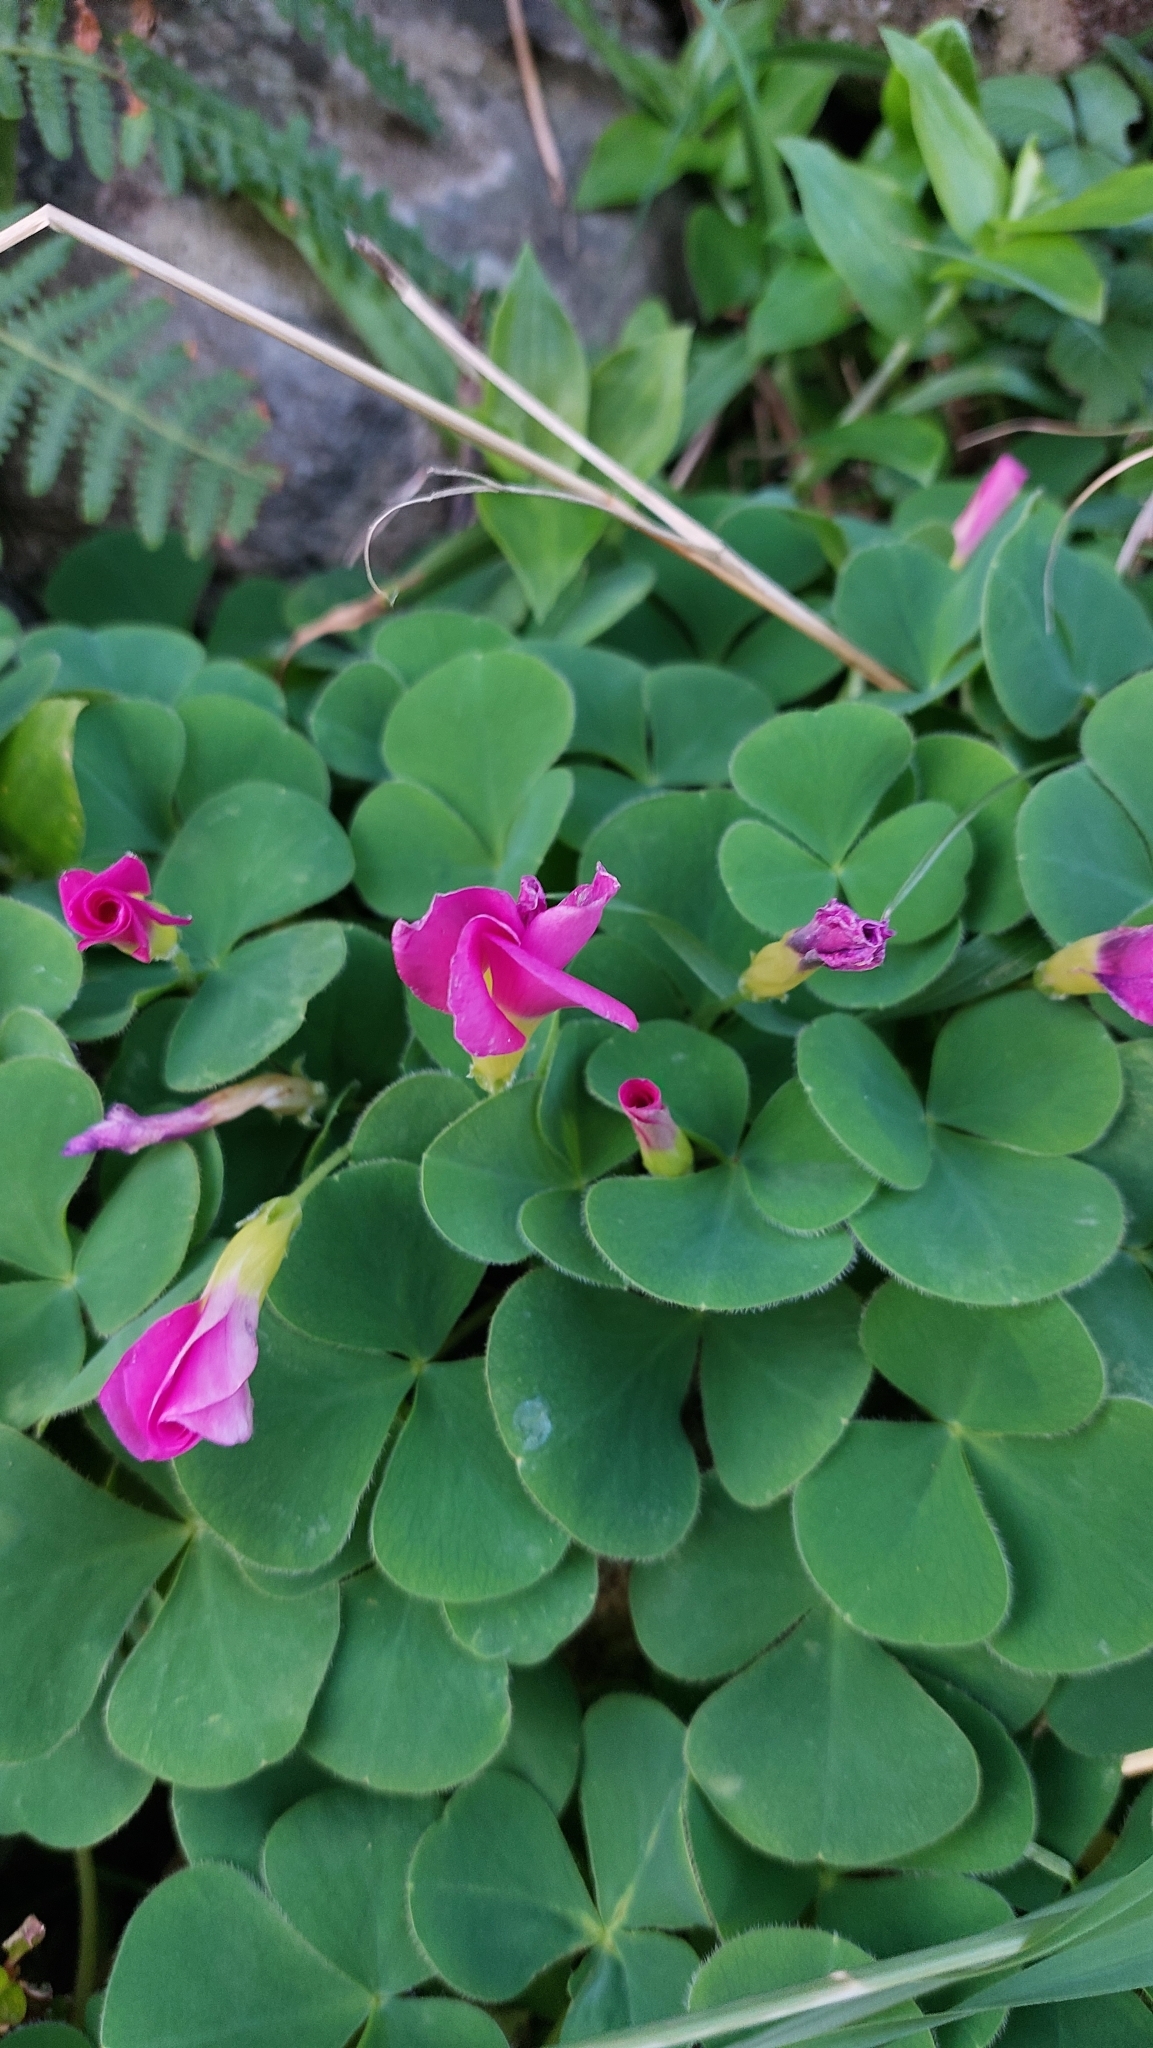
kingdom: Plantae
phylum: Tracheophyta
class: Magnoliopsida
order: Oxalidales
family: Oxalidaceae
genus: Oxalis
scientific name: Oxalis purpurea
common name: Purple woodsorrel
